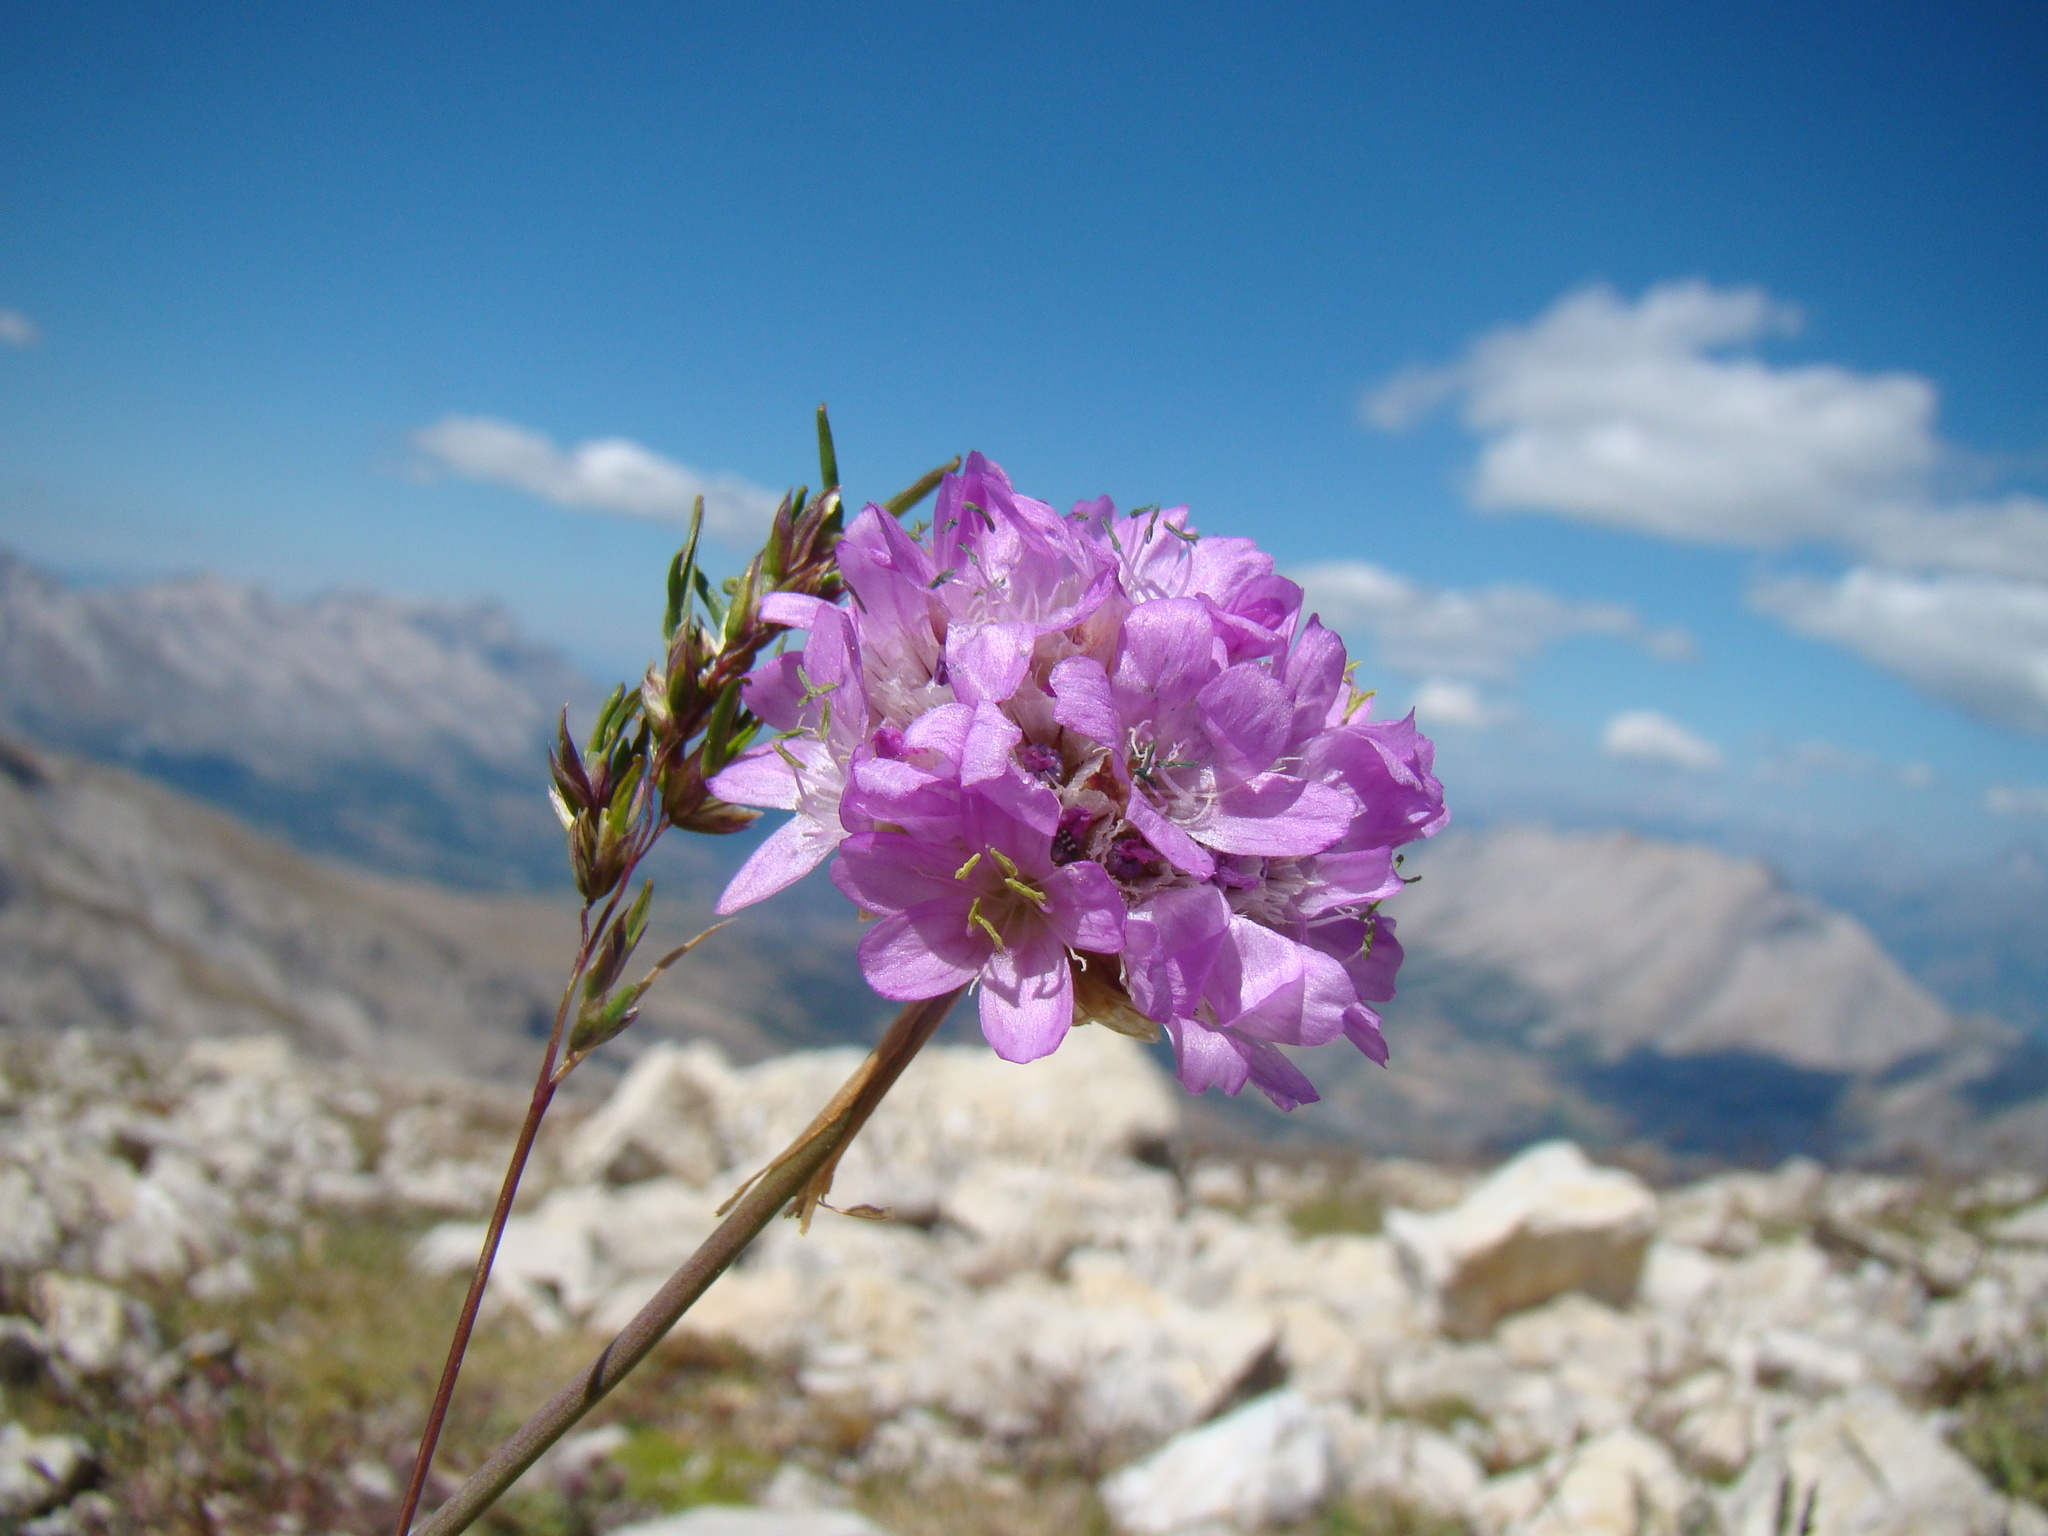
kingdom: Plantae
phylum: Tracheophyta
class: Magnoliopsida
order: Caryophyllales
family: Plumbaginaceae
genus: Armeria
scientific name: Armeria alpina
